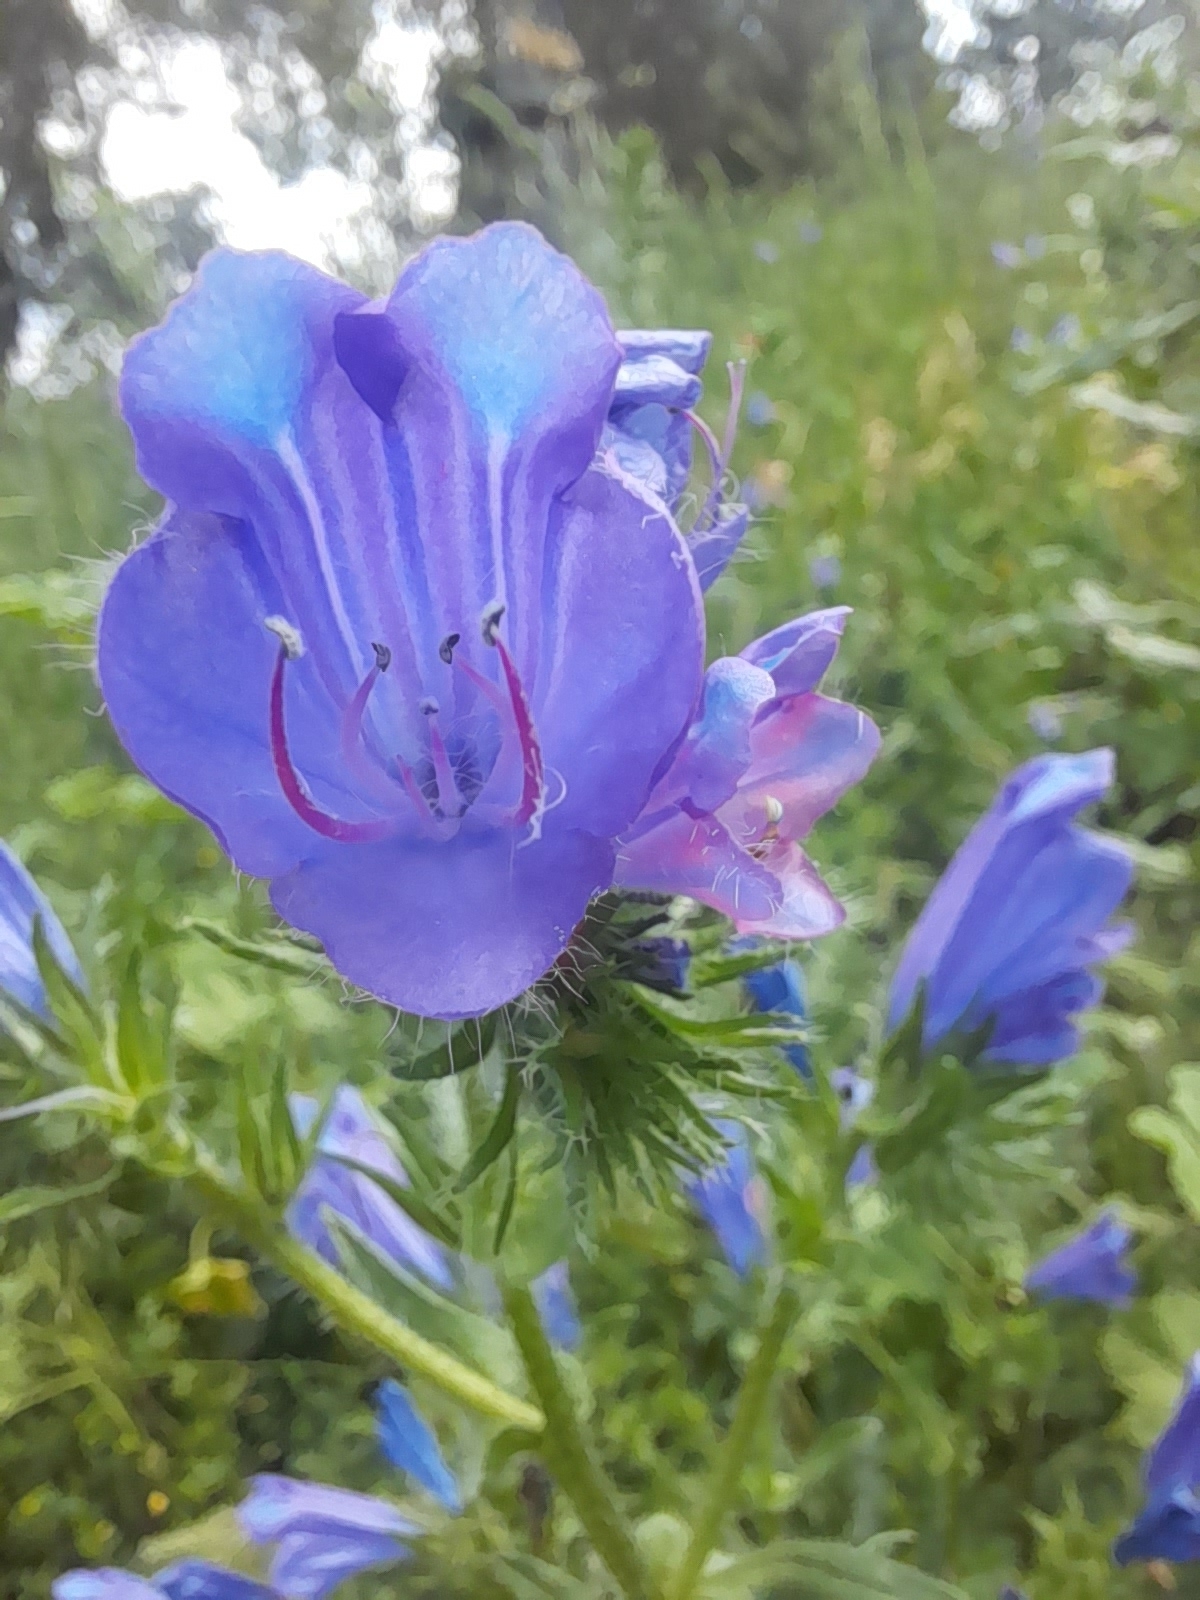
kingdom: Plantae
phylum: Tracheophyta
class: Magnoliopsida
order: Boraginales
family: Boraginaceae
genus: Echium
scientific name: Echium plantagineum
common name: Purple viper's-bugloss
